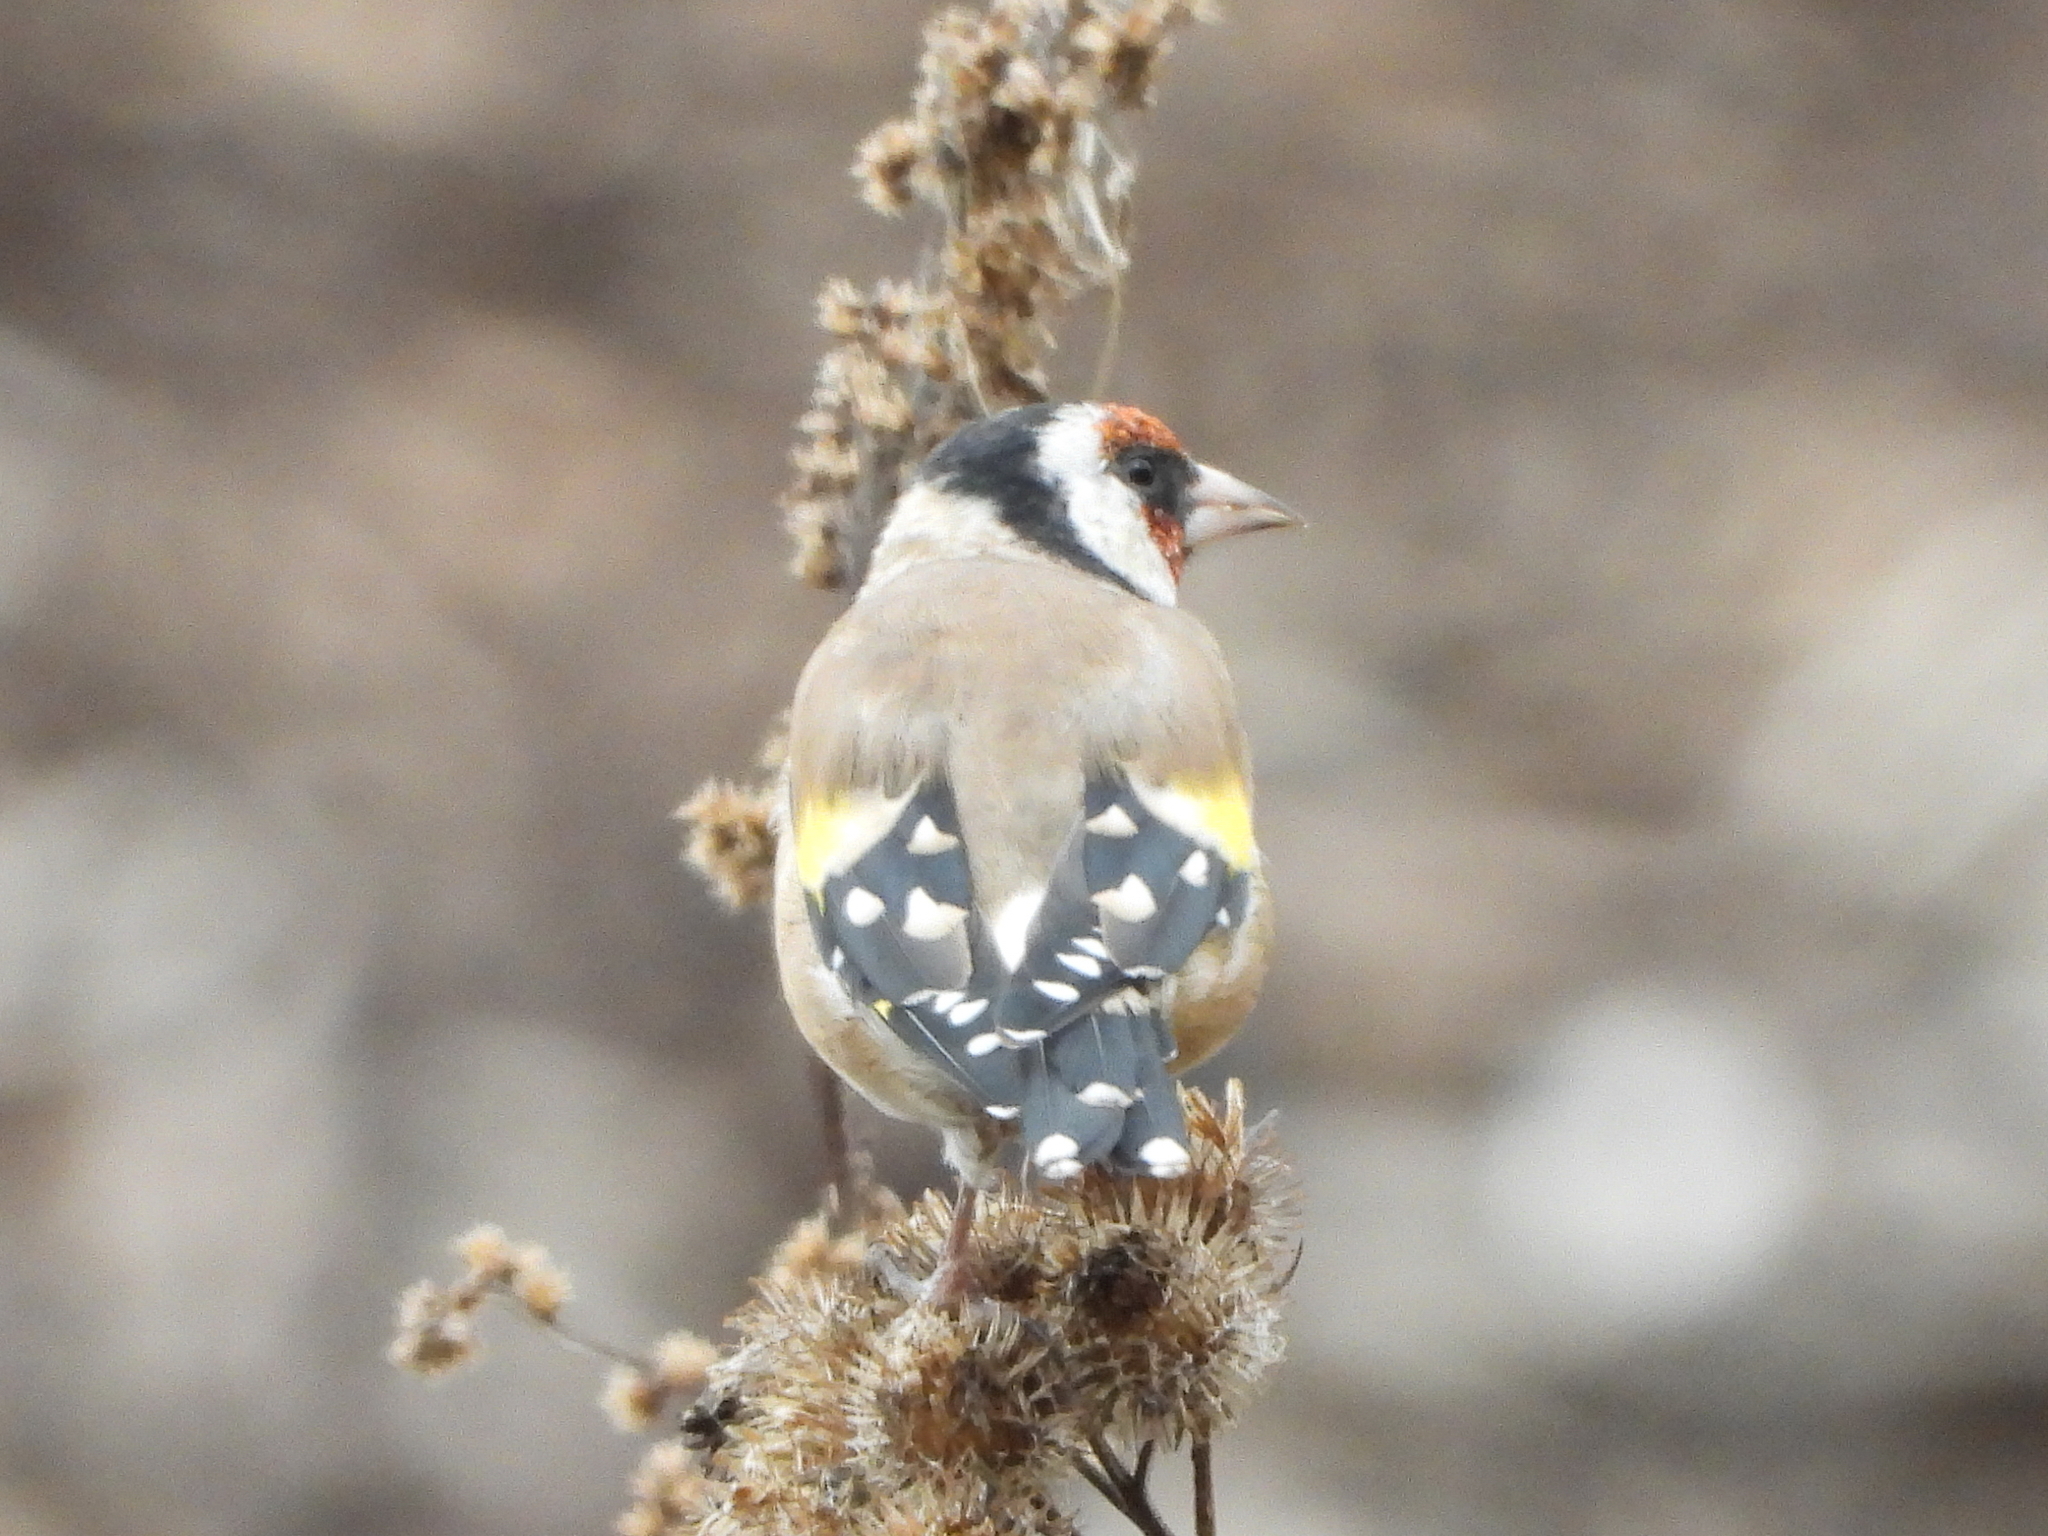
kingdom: Animalia
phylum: Chordata
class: Aves
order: Passeriformes
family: Fringillidae
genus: Carduelis
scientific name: Carduelis carduelis
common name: European goldfinch
